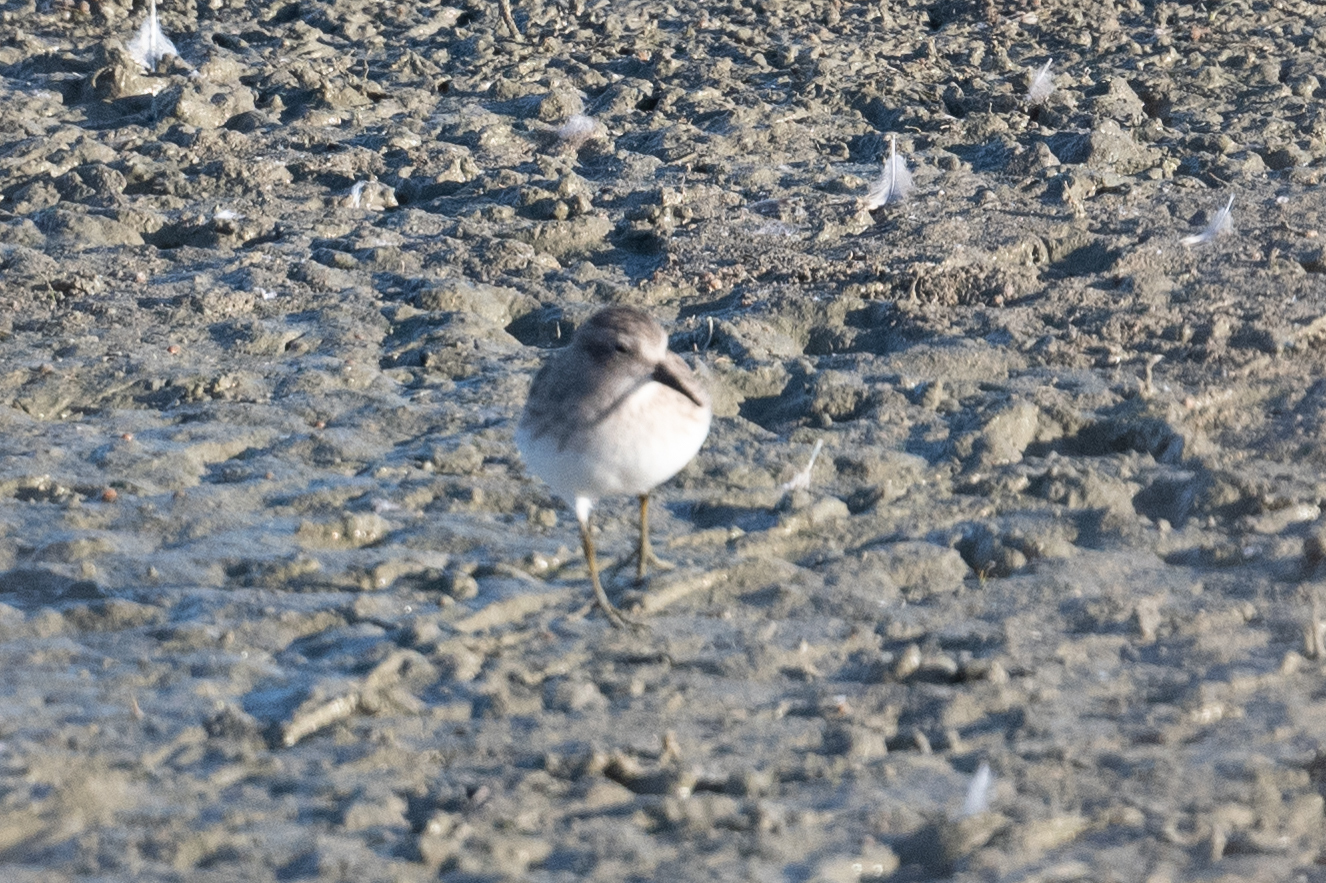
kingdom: Animalia
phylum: Chordata
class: Aves
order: Charadriiformes
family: Scolopacidae
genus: Calidris
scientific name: Calidris minutilla
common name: Least sandpiper
